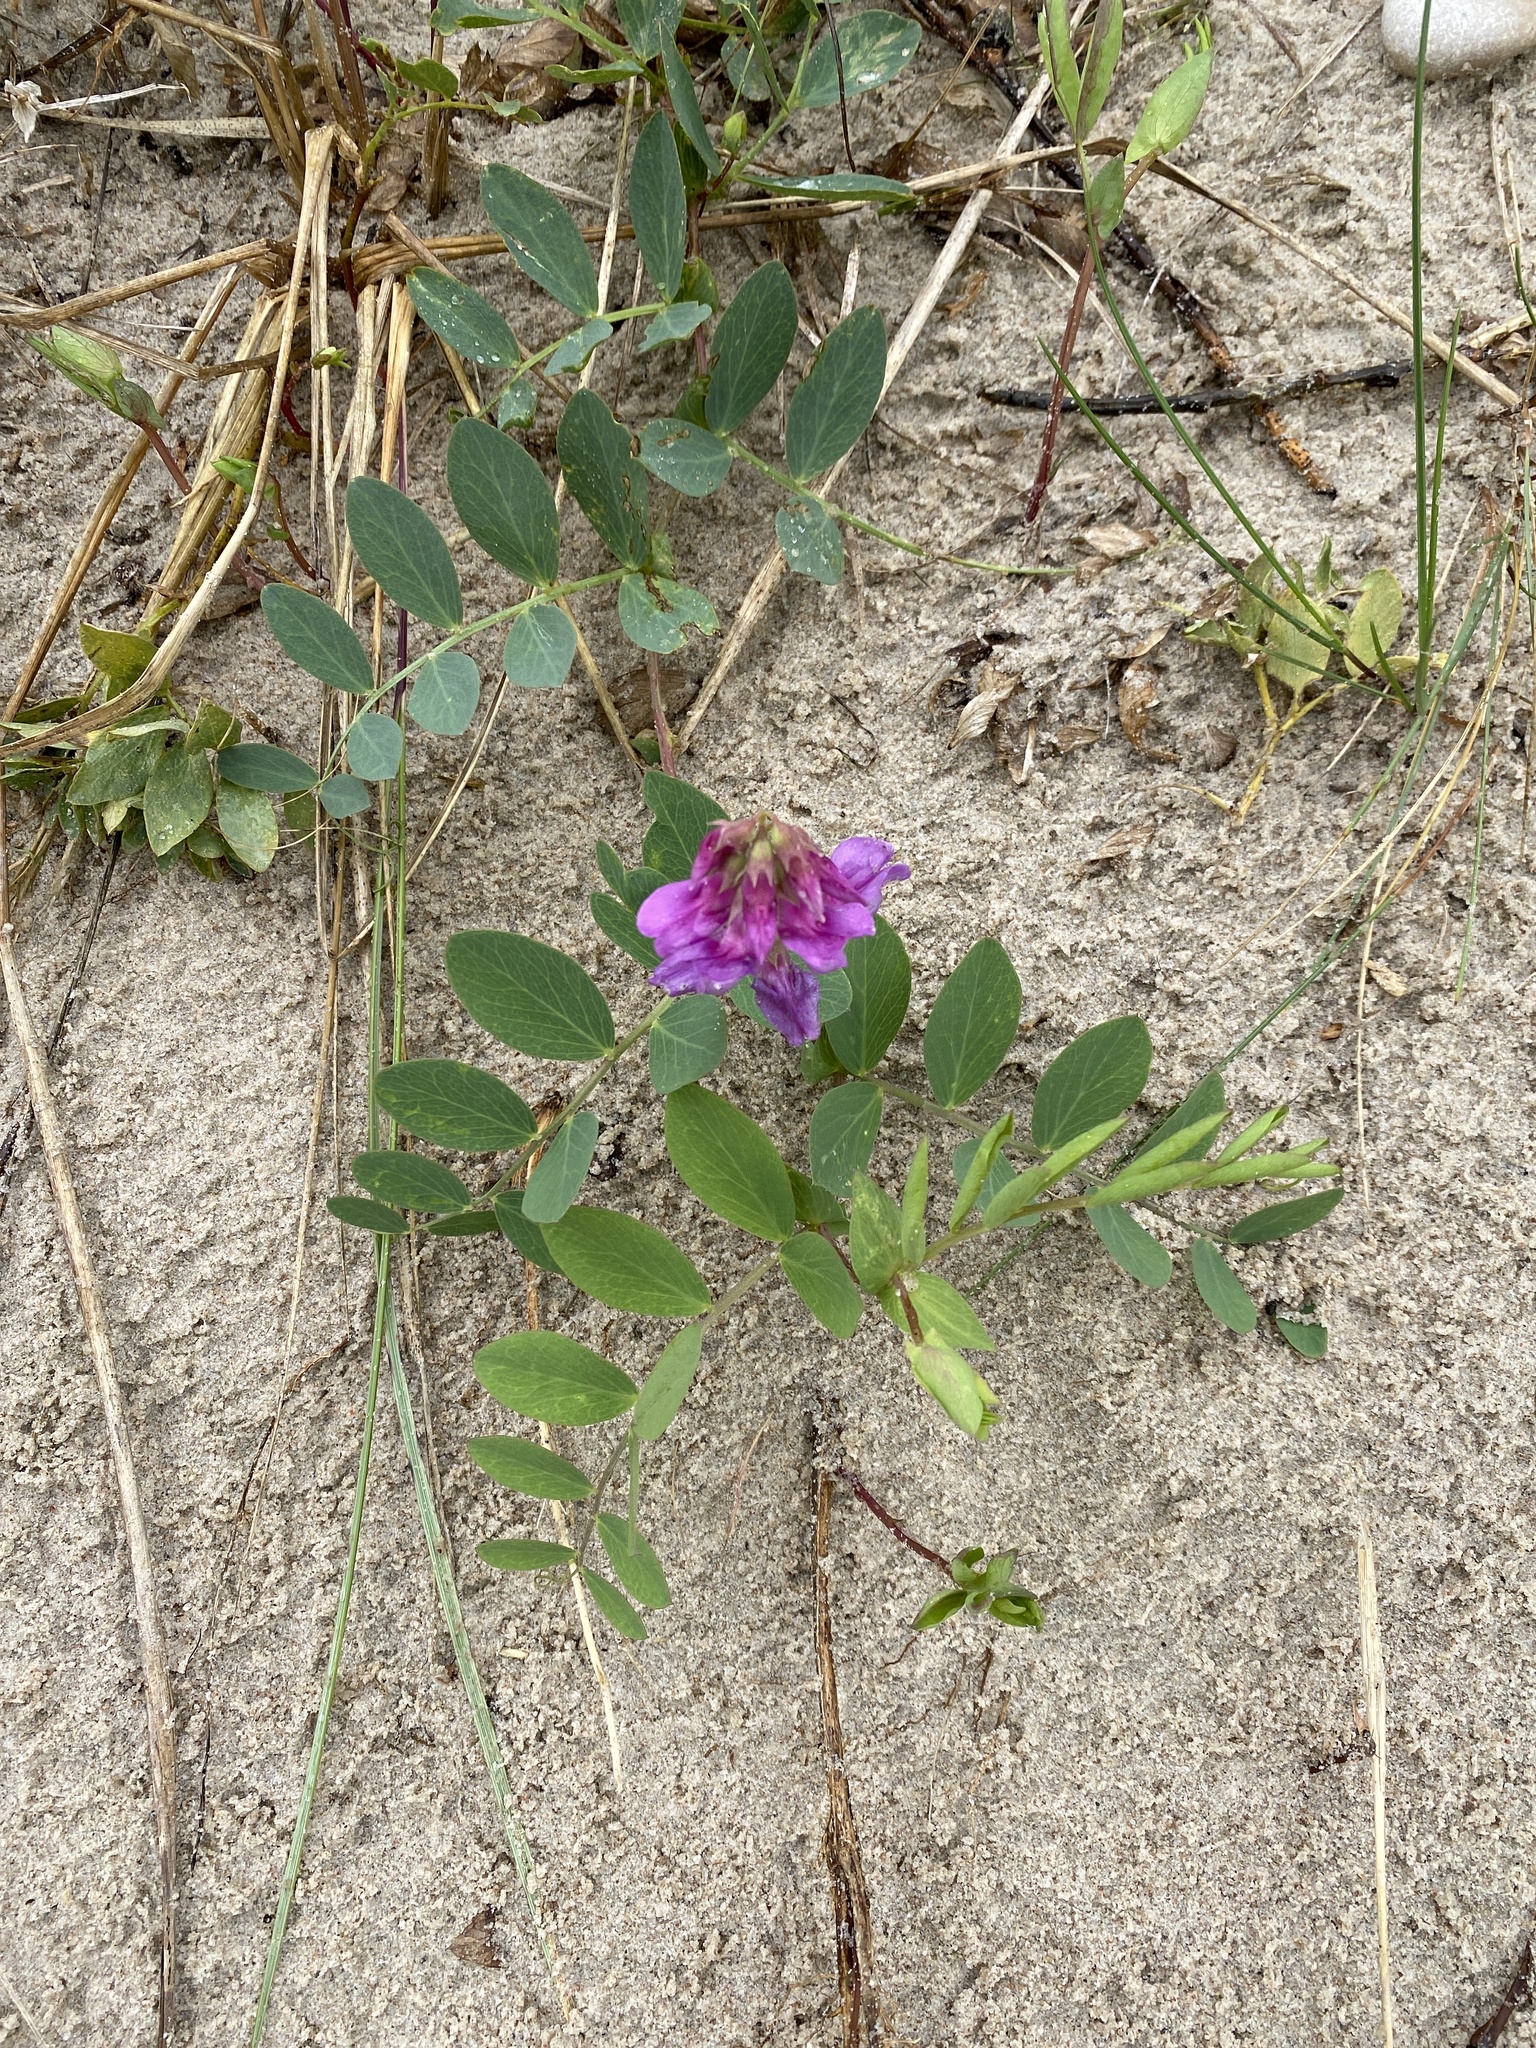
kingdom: Plantae
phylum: Tracheophyta
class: Magnoliopsida
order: Fabales
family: Fabaceae
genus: Lathyrus
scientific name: Lathyrus japonicus
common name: Sea pea
